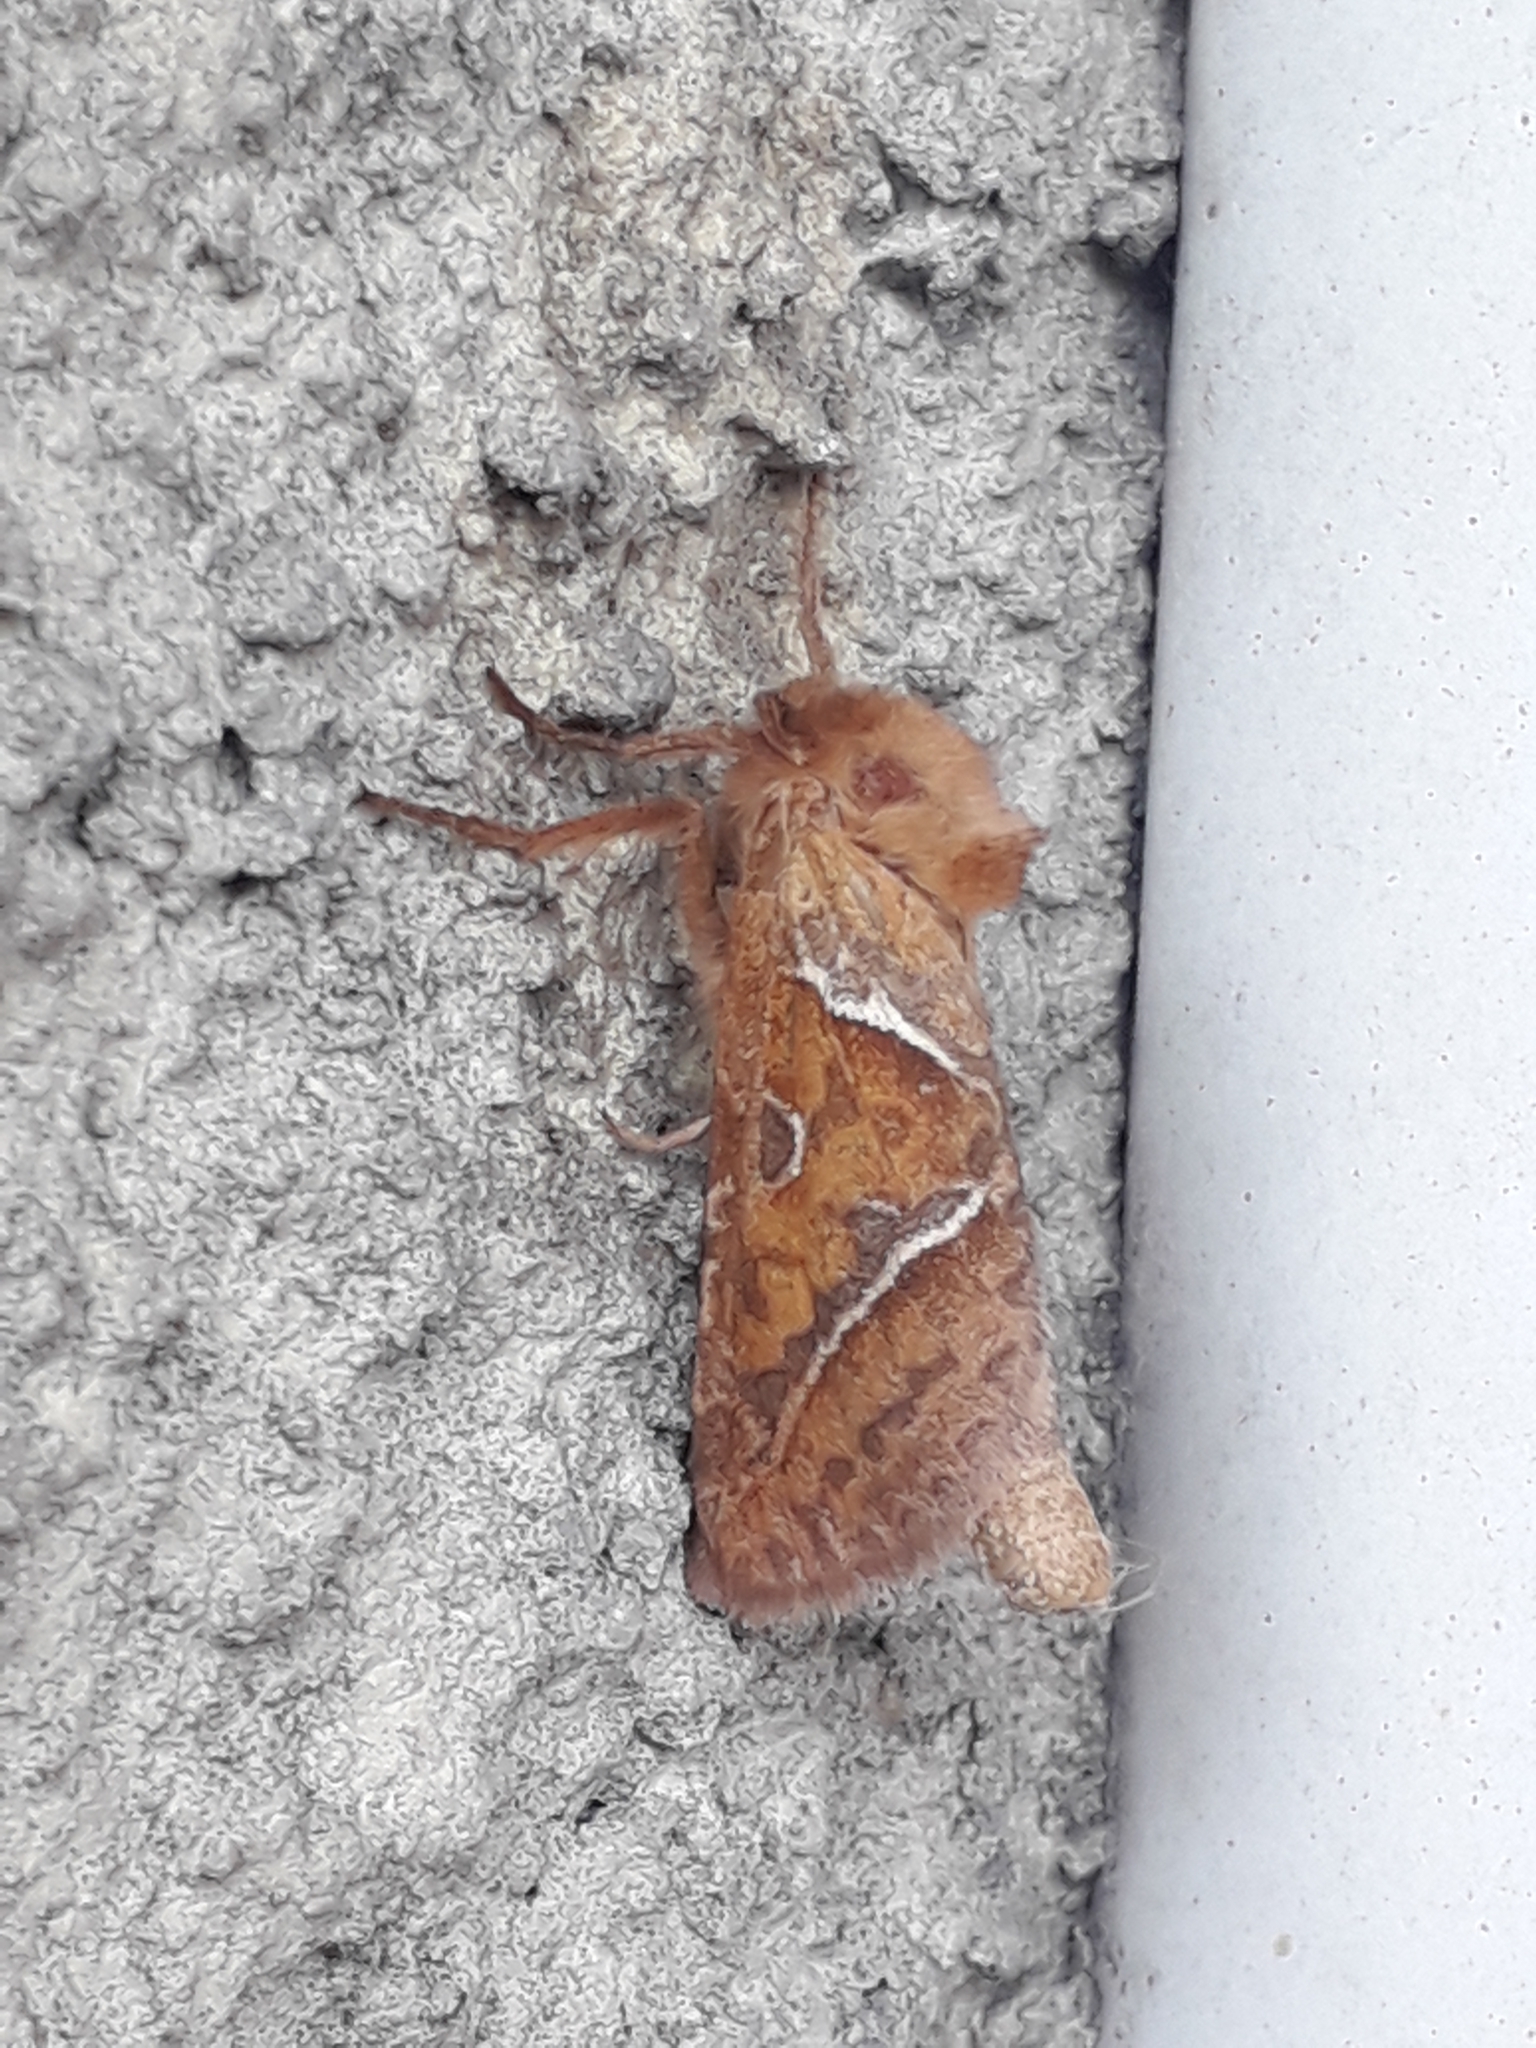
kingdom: Animalia
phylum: Arthropoda
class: Insecta
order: Lepidoptera
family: Hepialidae
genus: Triodia
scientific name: Triodia sylvina
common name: Orange swift
